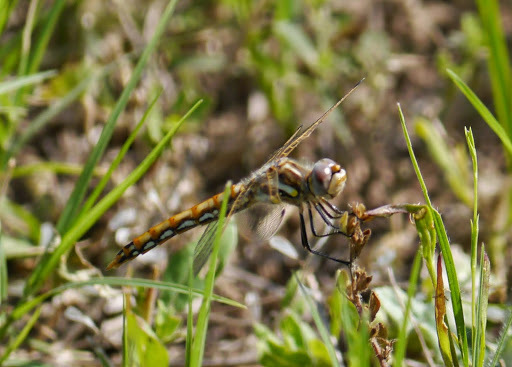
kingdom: Animalia
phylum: Arthropoda
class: Insecta
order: Odonata
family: Libellulidae
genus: Sympetrum
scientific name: Sympetrum corruptum
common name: Variegated meadowhawk
